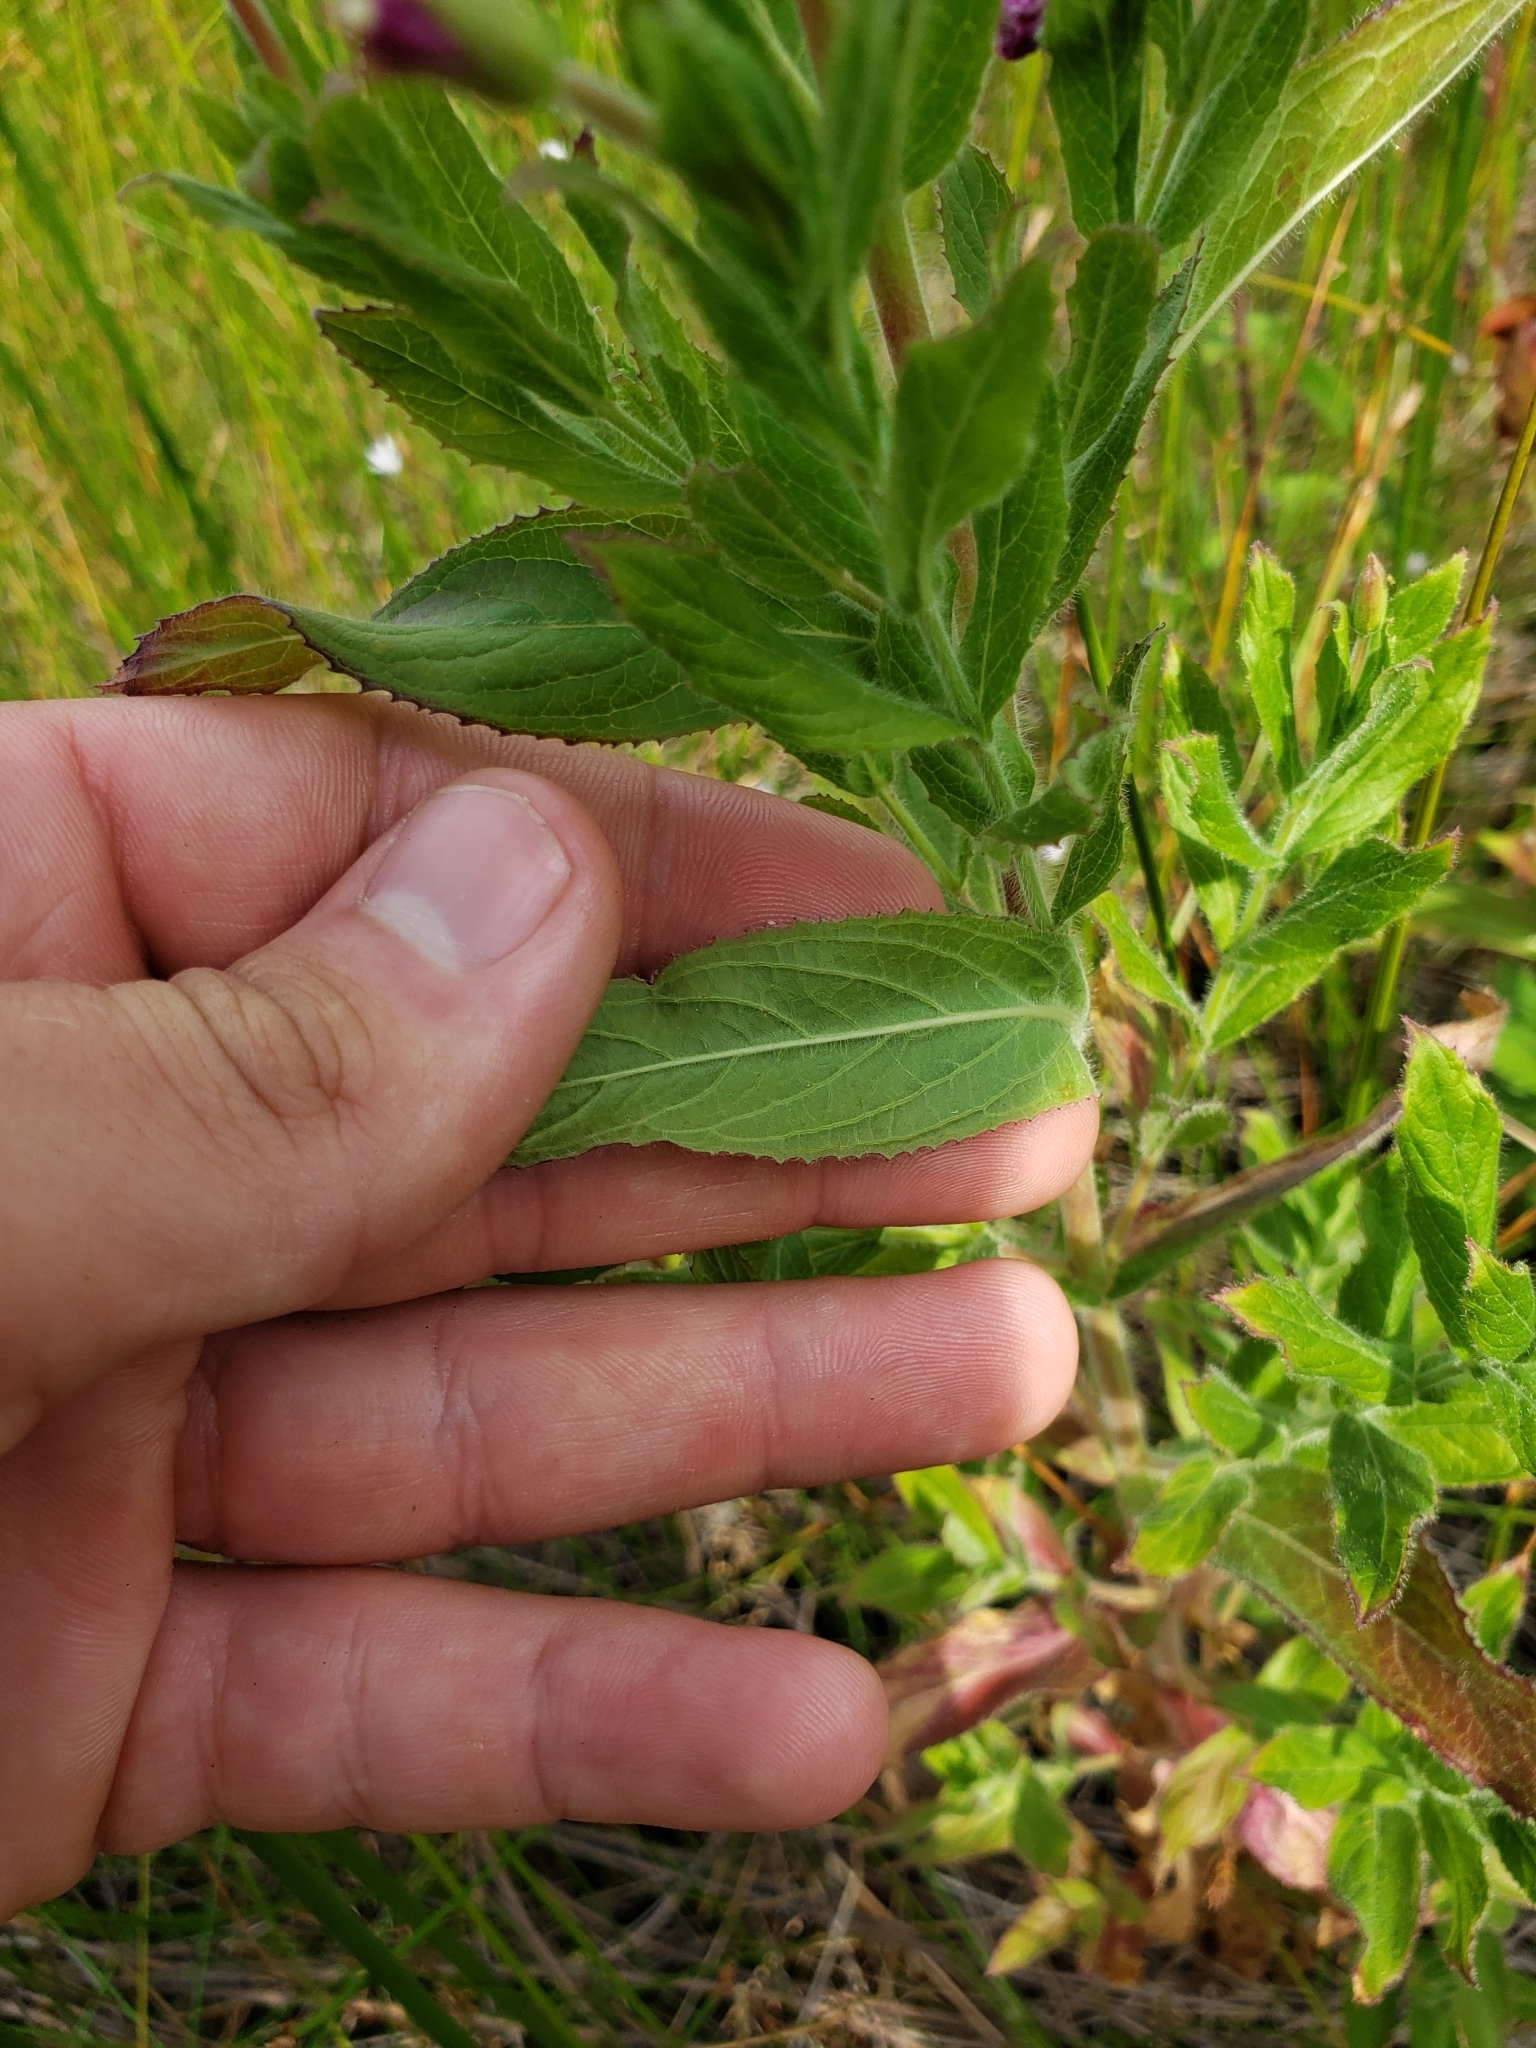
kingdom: Plantae
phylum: Tracheophyta
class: Magnoliopsida
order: Myrtales
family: Onagraceae
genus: Epilobium
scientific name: Epilobium hirsutum
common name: Great willowherb
